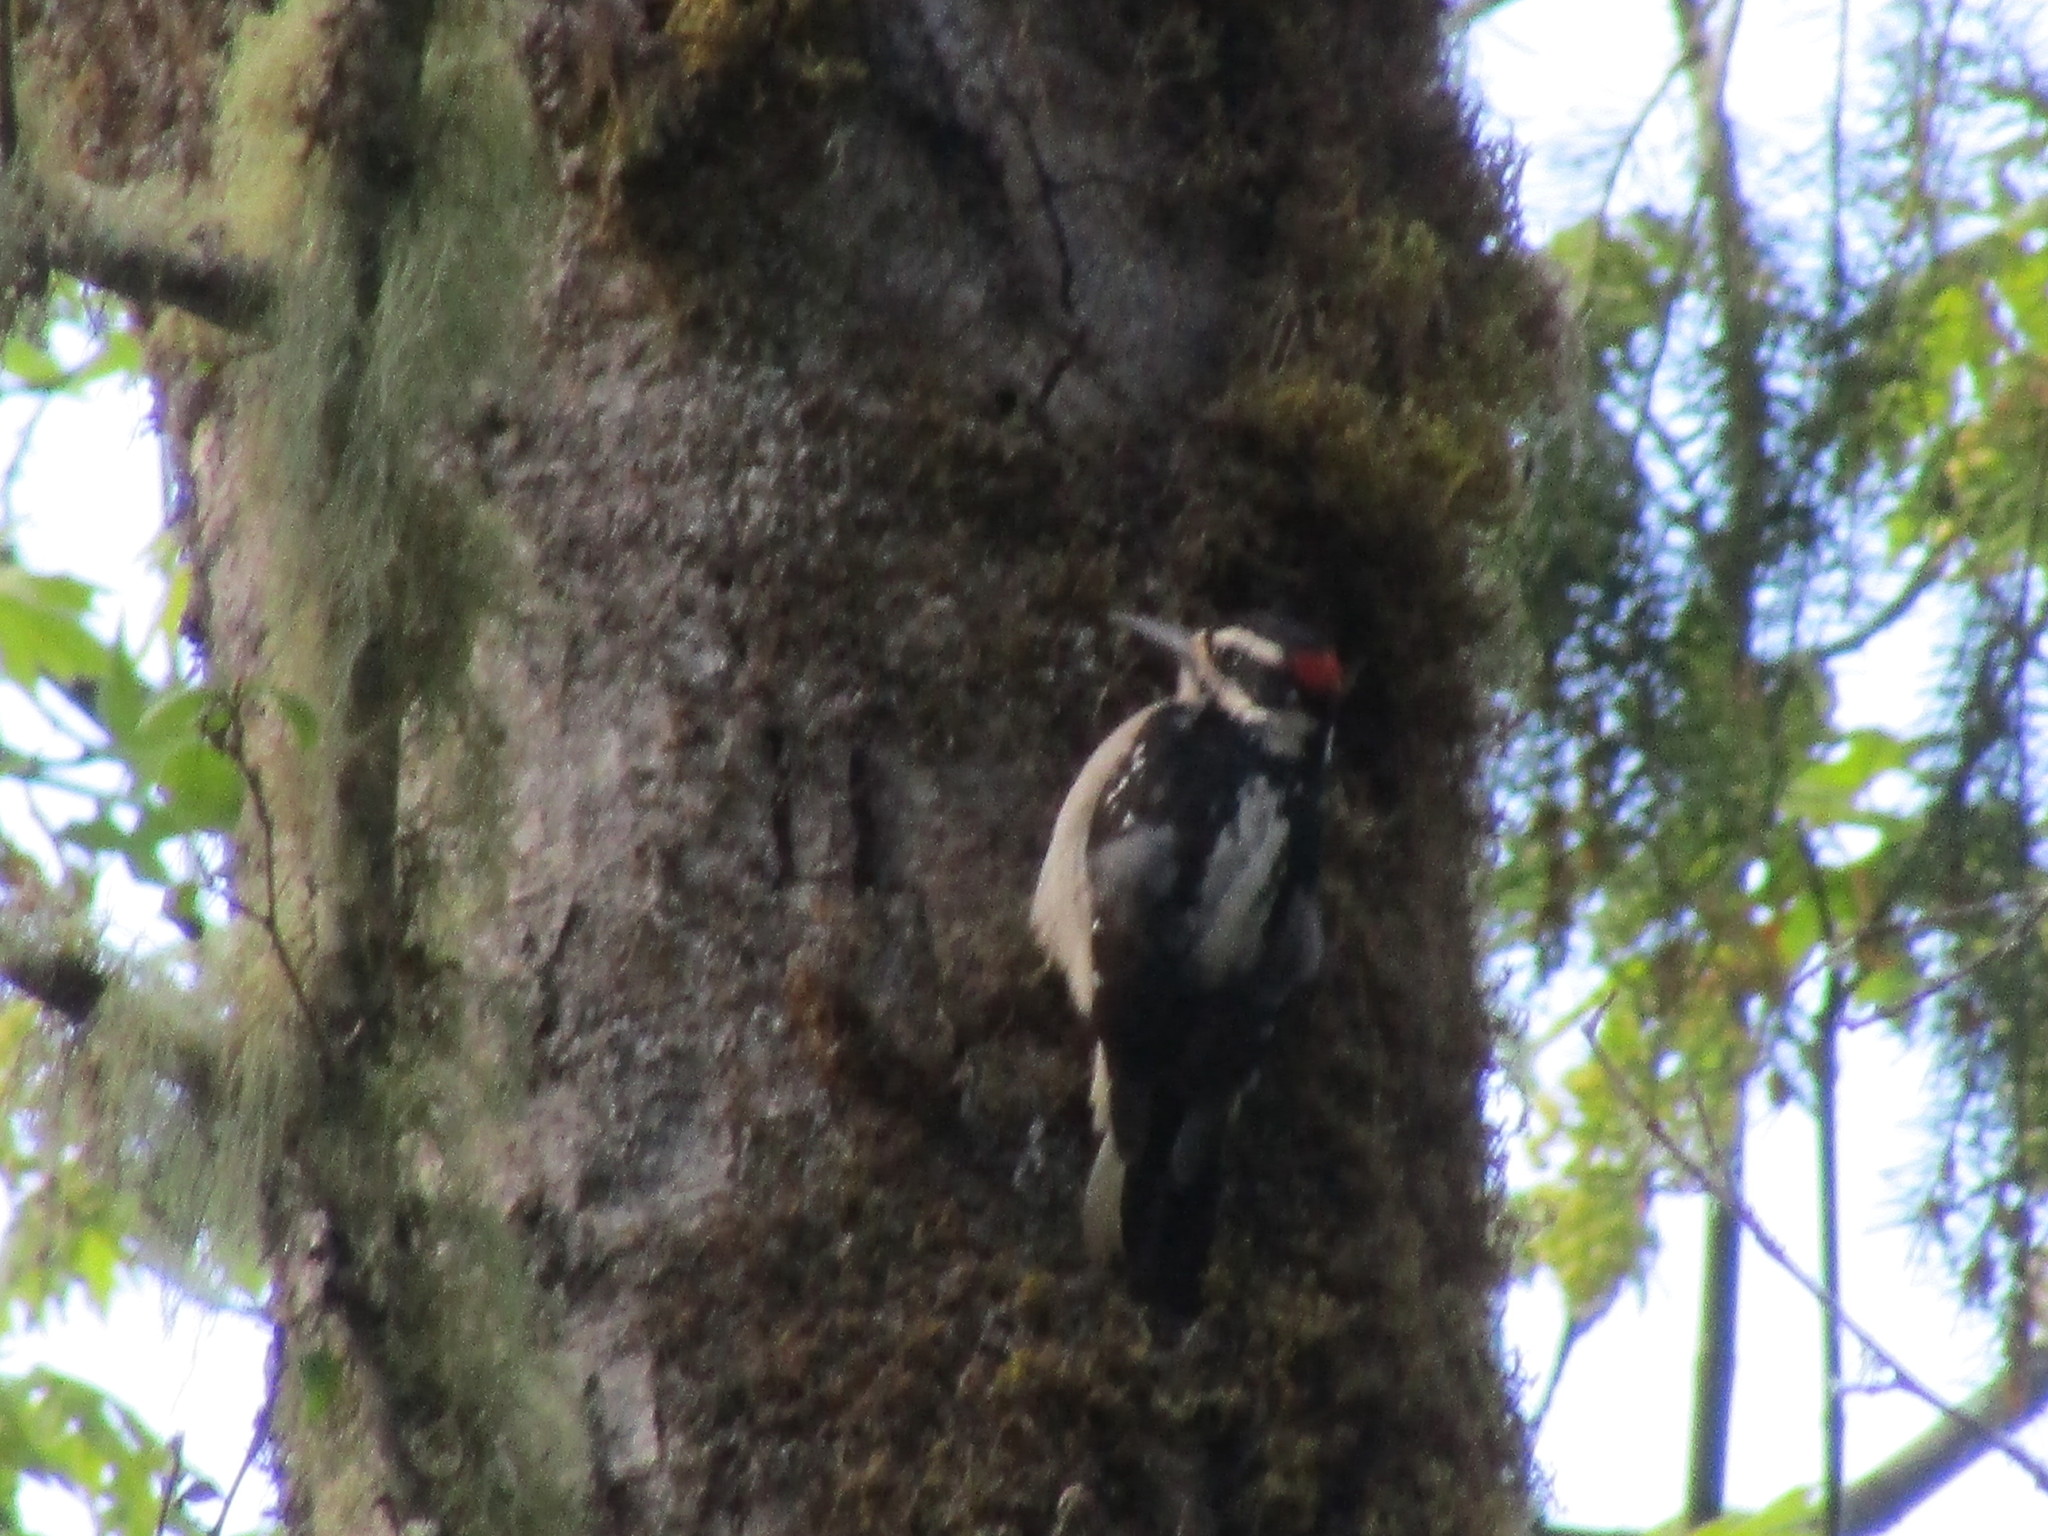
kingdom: Animalia
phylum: Chordata
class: Aves
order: Piciformes
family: Picidae
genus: Leuconotopicus
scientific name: Leuconotopicus villosus
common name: Hairy woodpecker
